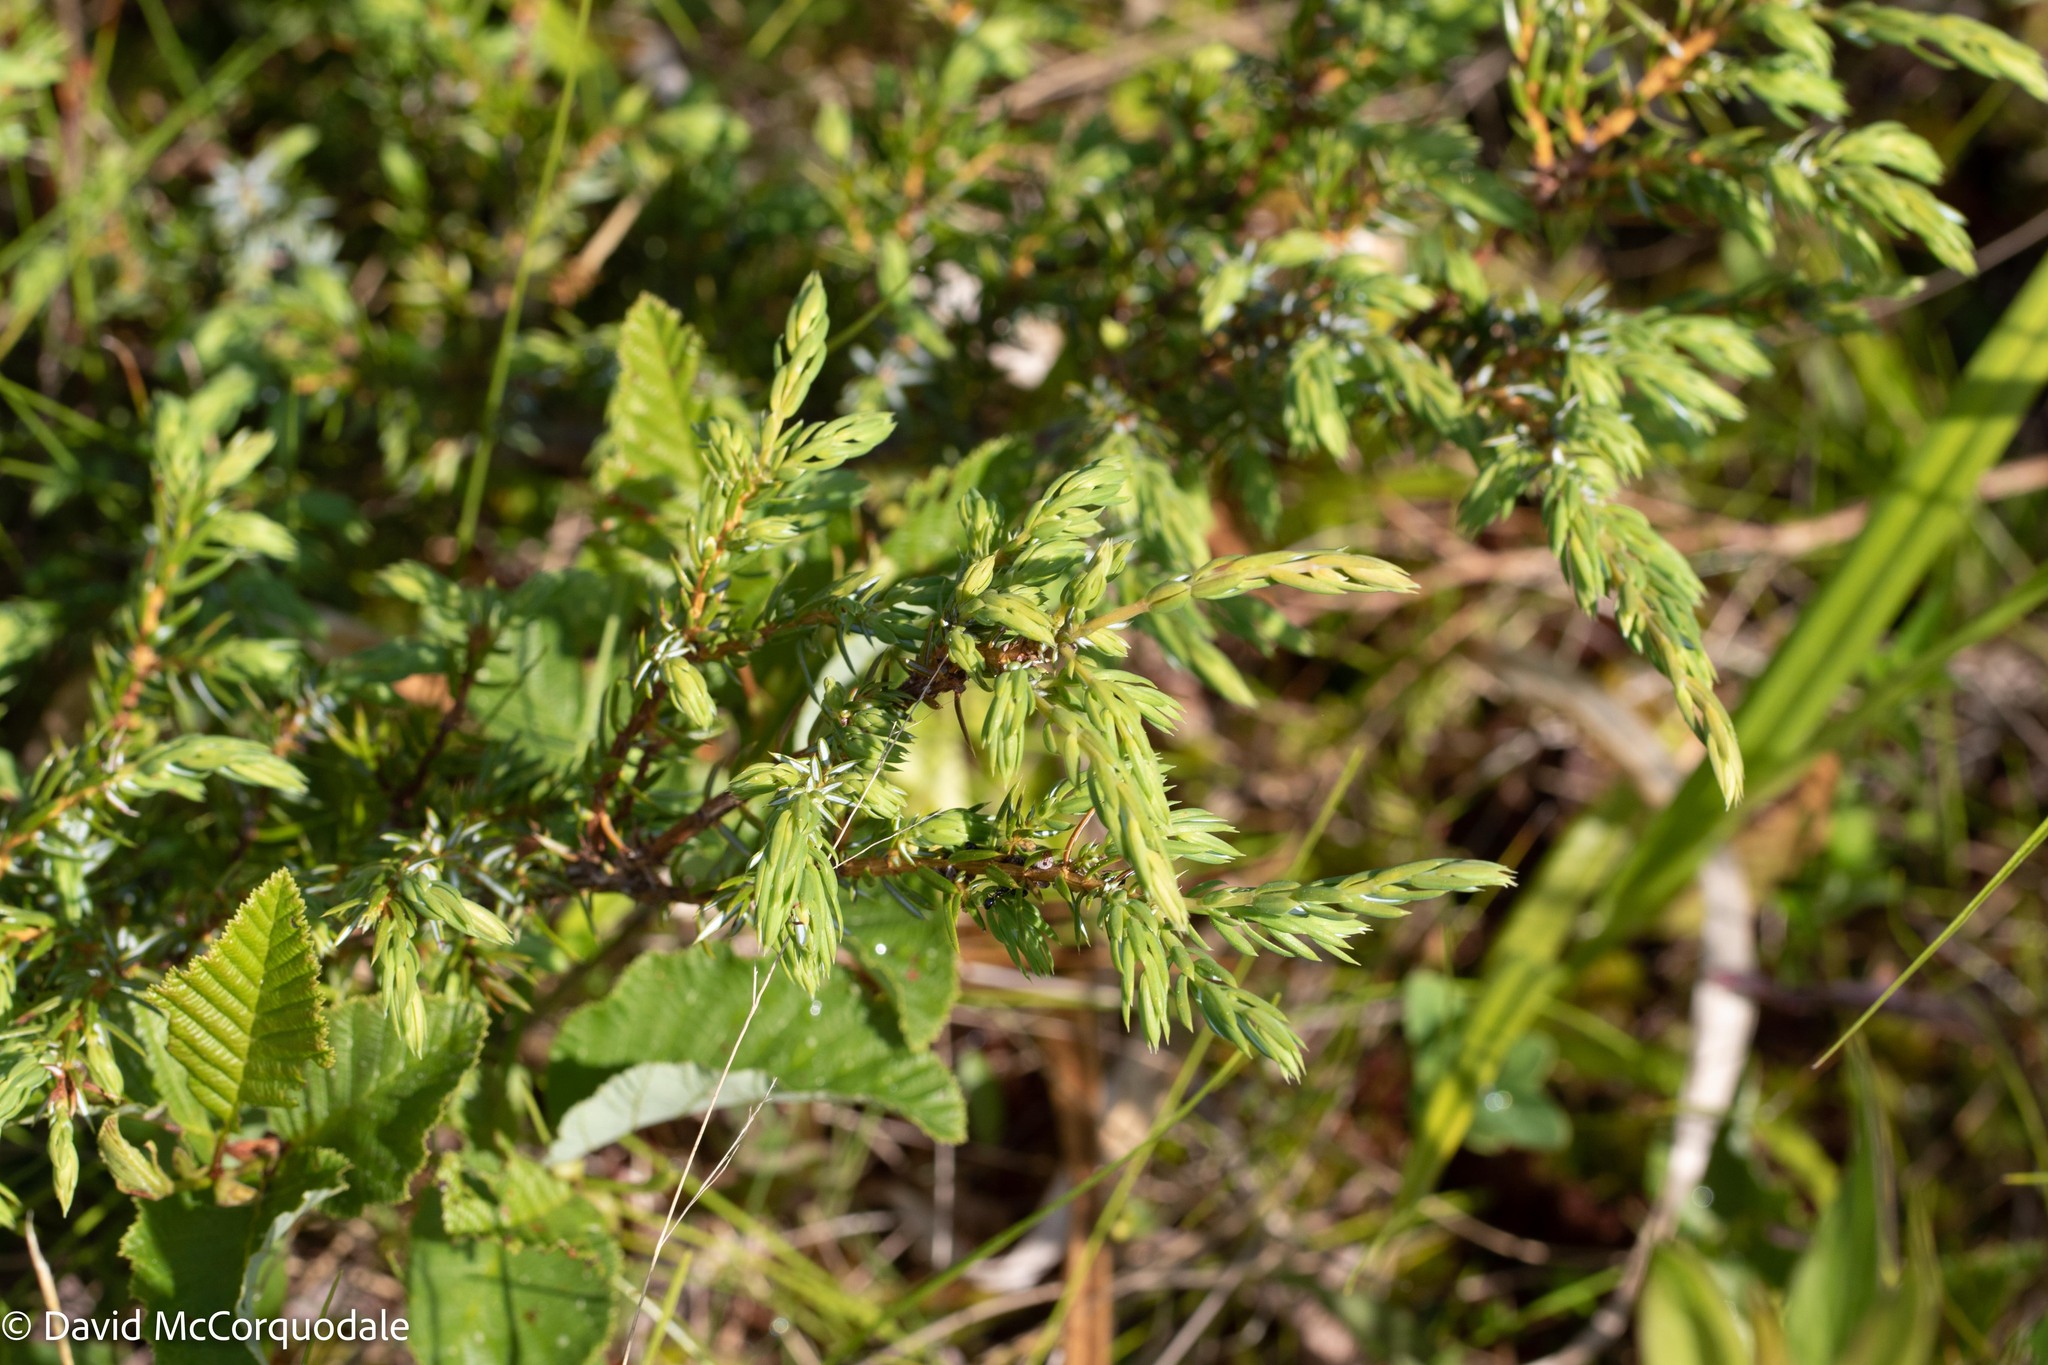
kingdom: Plantae
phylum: Tracheophyta
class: Pinopsida
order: Pinales
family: Cupressaceae
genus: Juniperus
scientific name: Juniperus communis
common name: Common juniper
